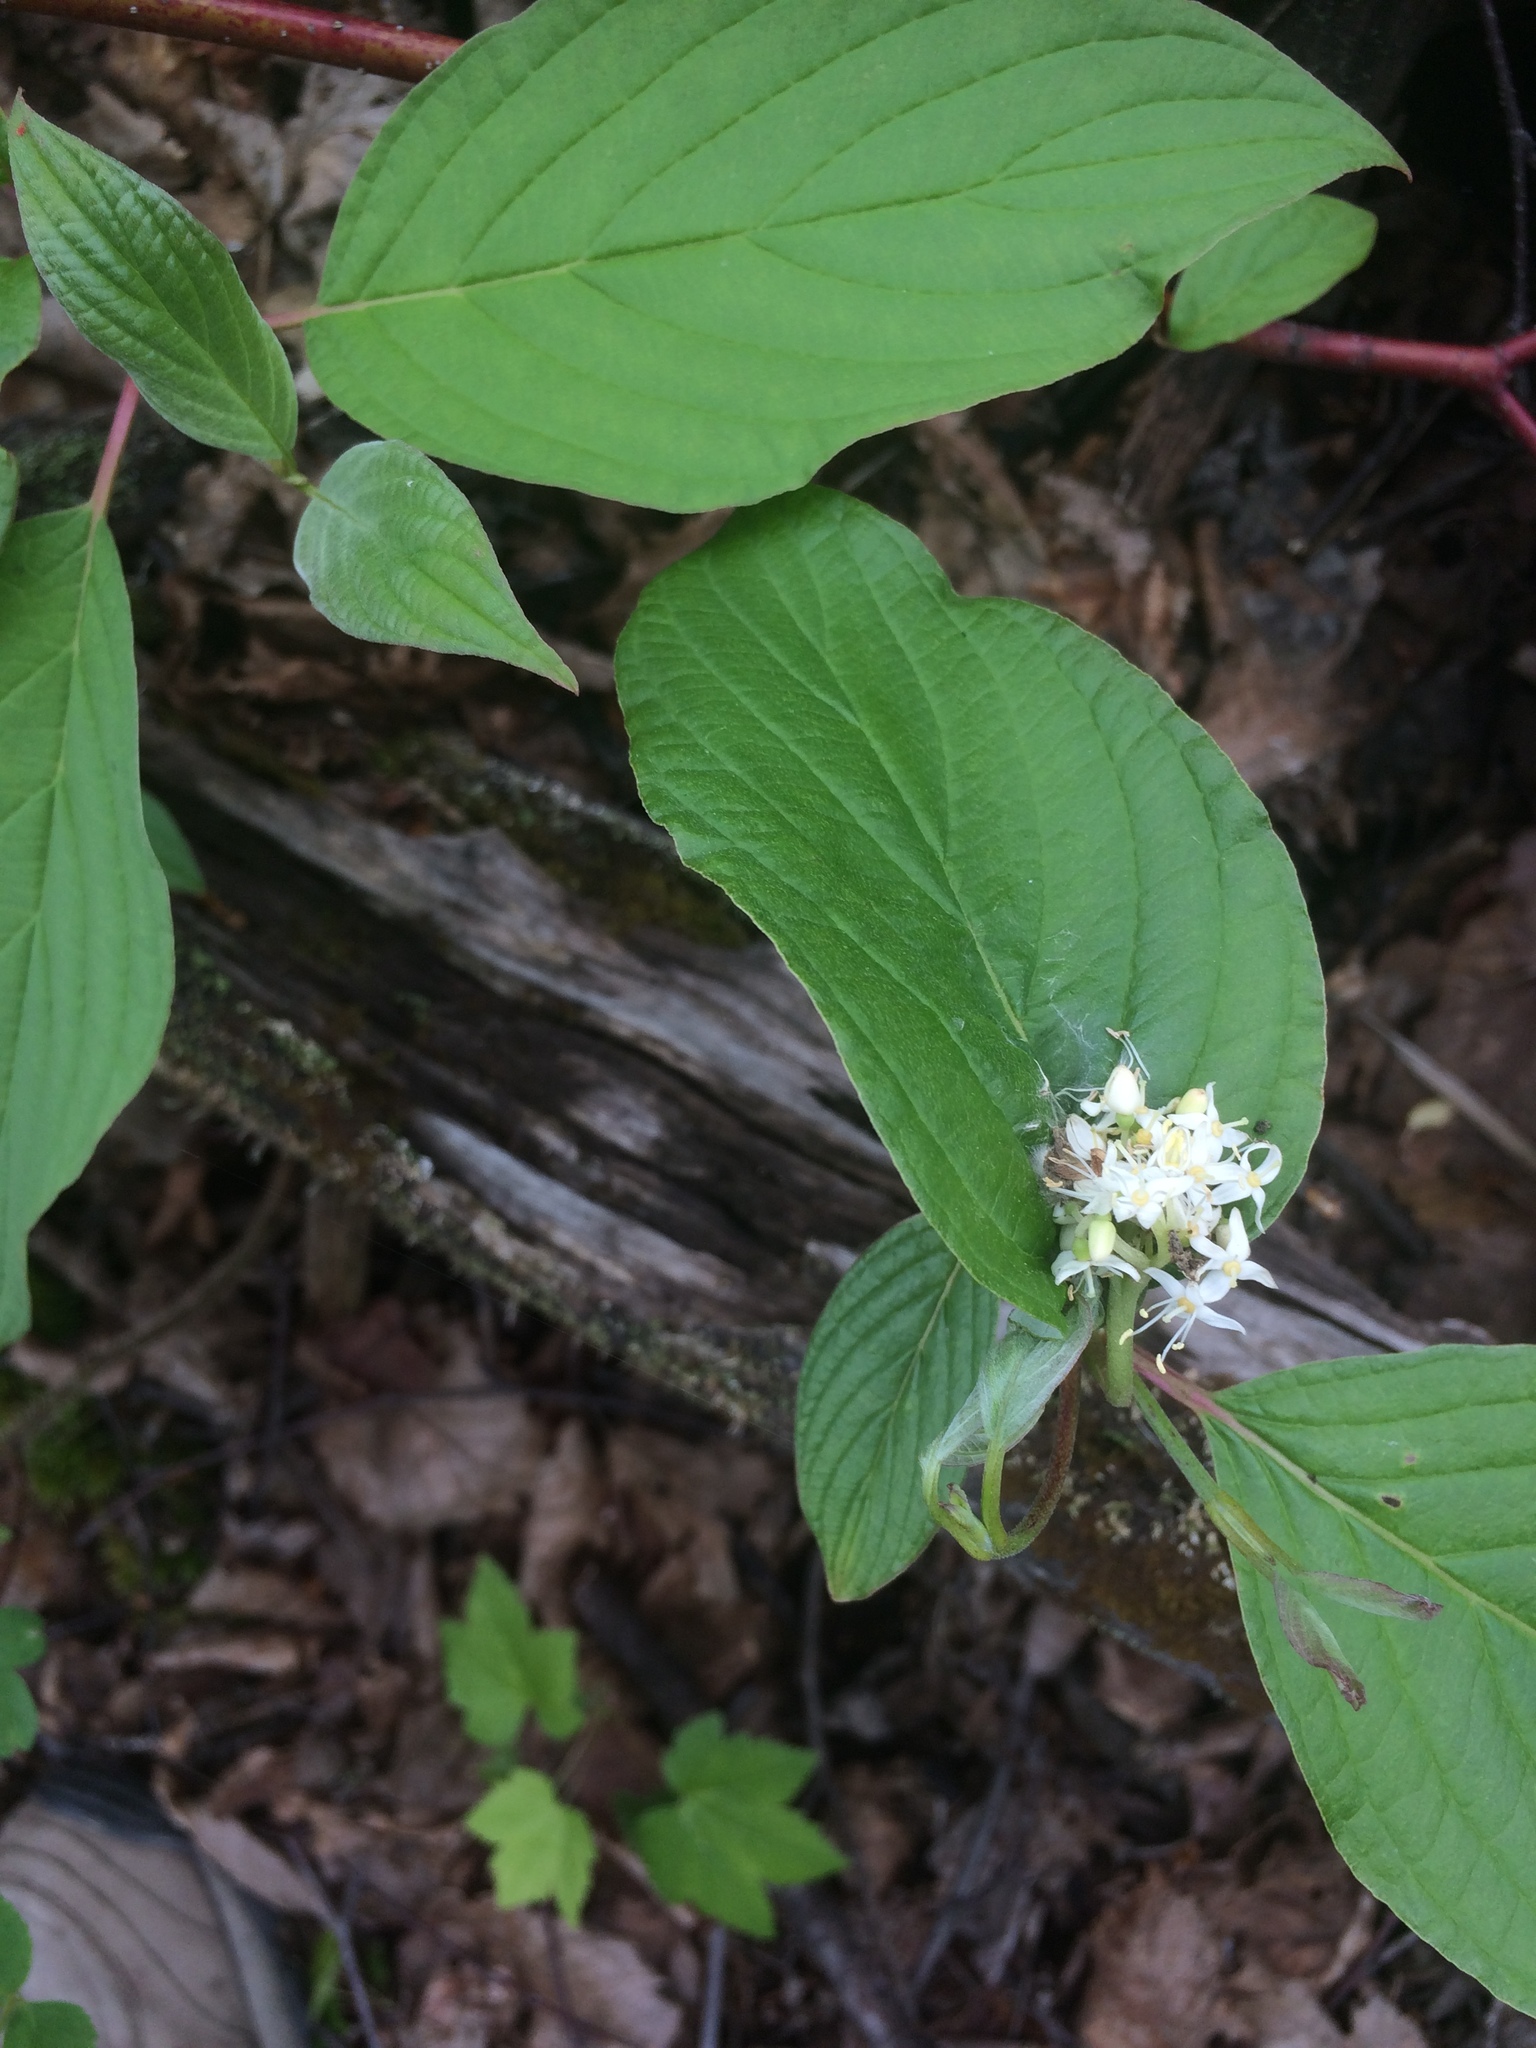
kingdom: Plantae
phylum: Tracheophyta
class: Magnoliopsida
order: Cornales
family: Cornaceae
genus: Cornus
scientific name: Cornus sericea
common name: Red-osier dogwood
